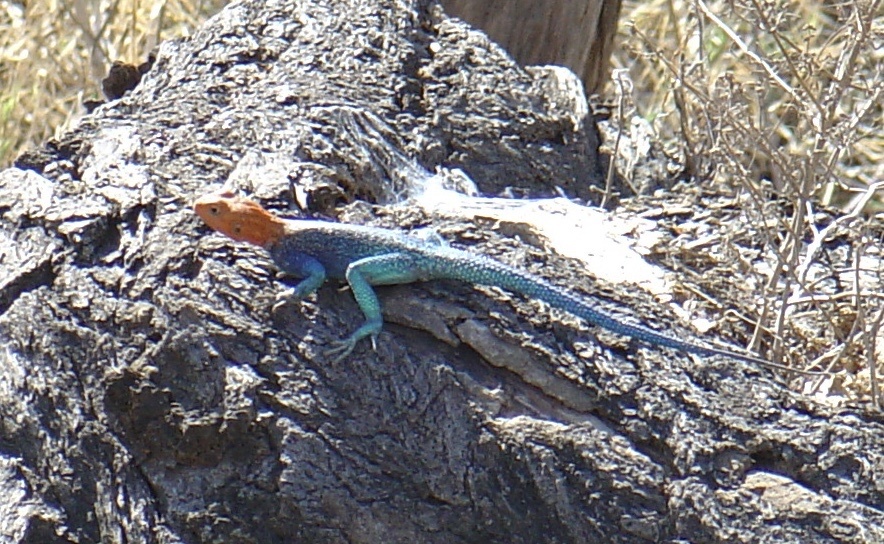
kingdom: Animalia
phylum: Chordata
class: Squamata
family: Agamidae
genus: Agama
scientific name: Agama dodomae
